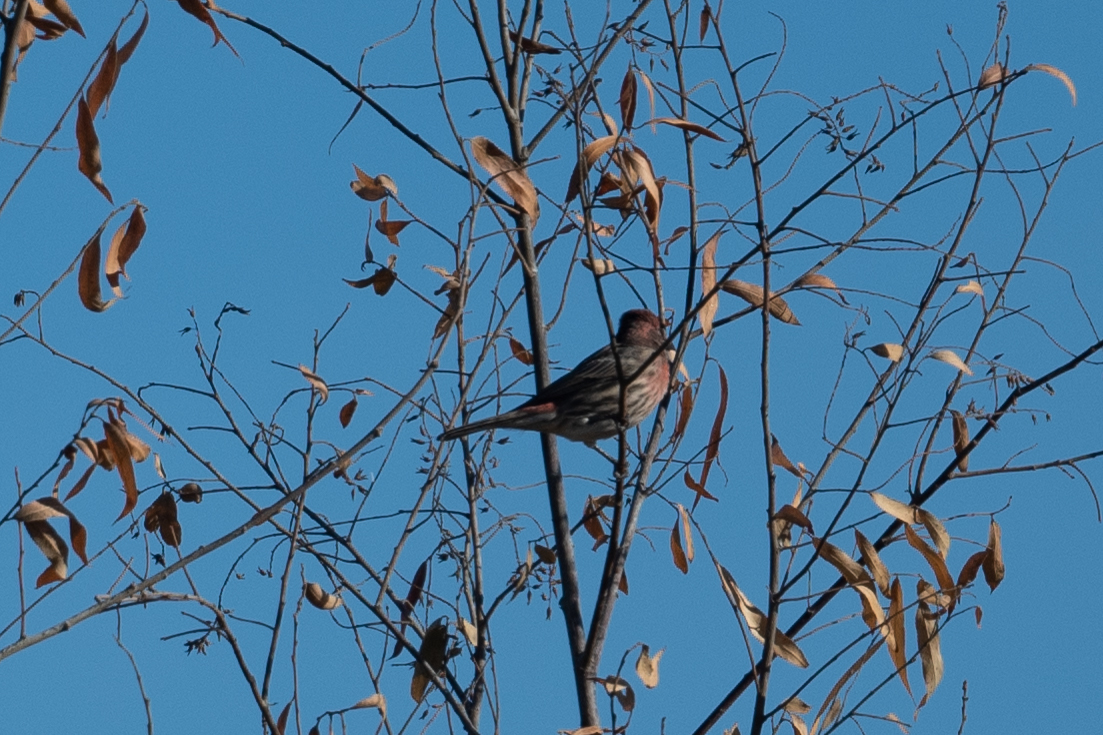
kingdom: Animalia
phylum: Chordata
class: Aves
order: Passeriformes
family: Fringillidae
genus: Haemorhous
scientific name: Haemorhous mexicanus
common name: House finch
